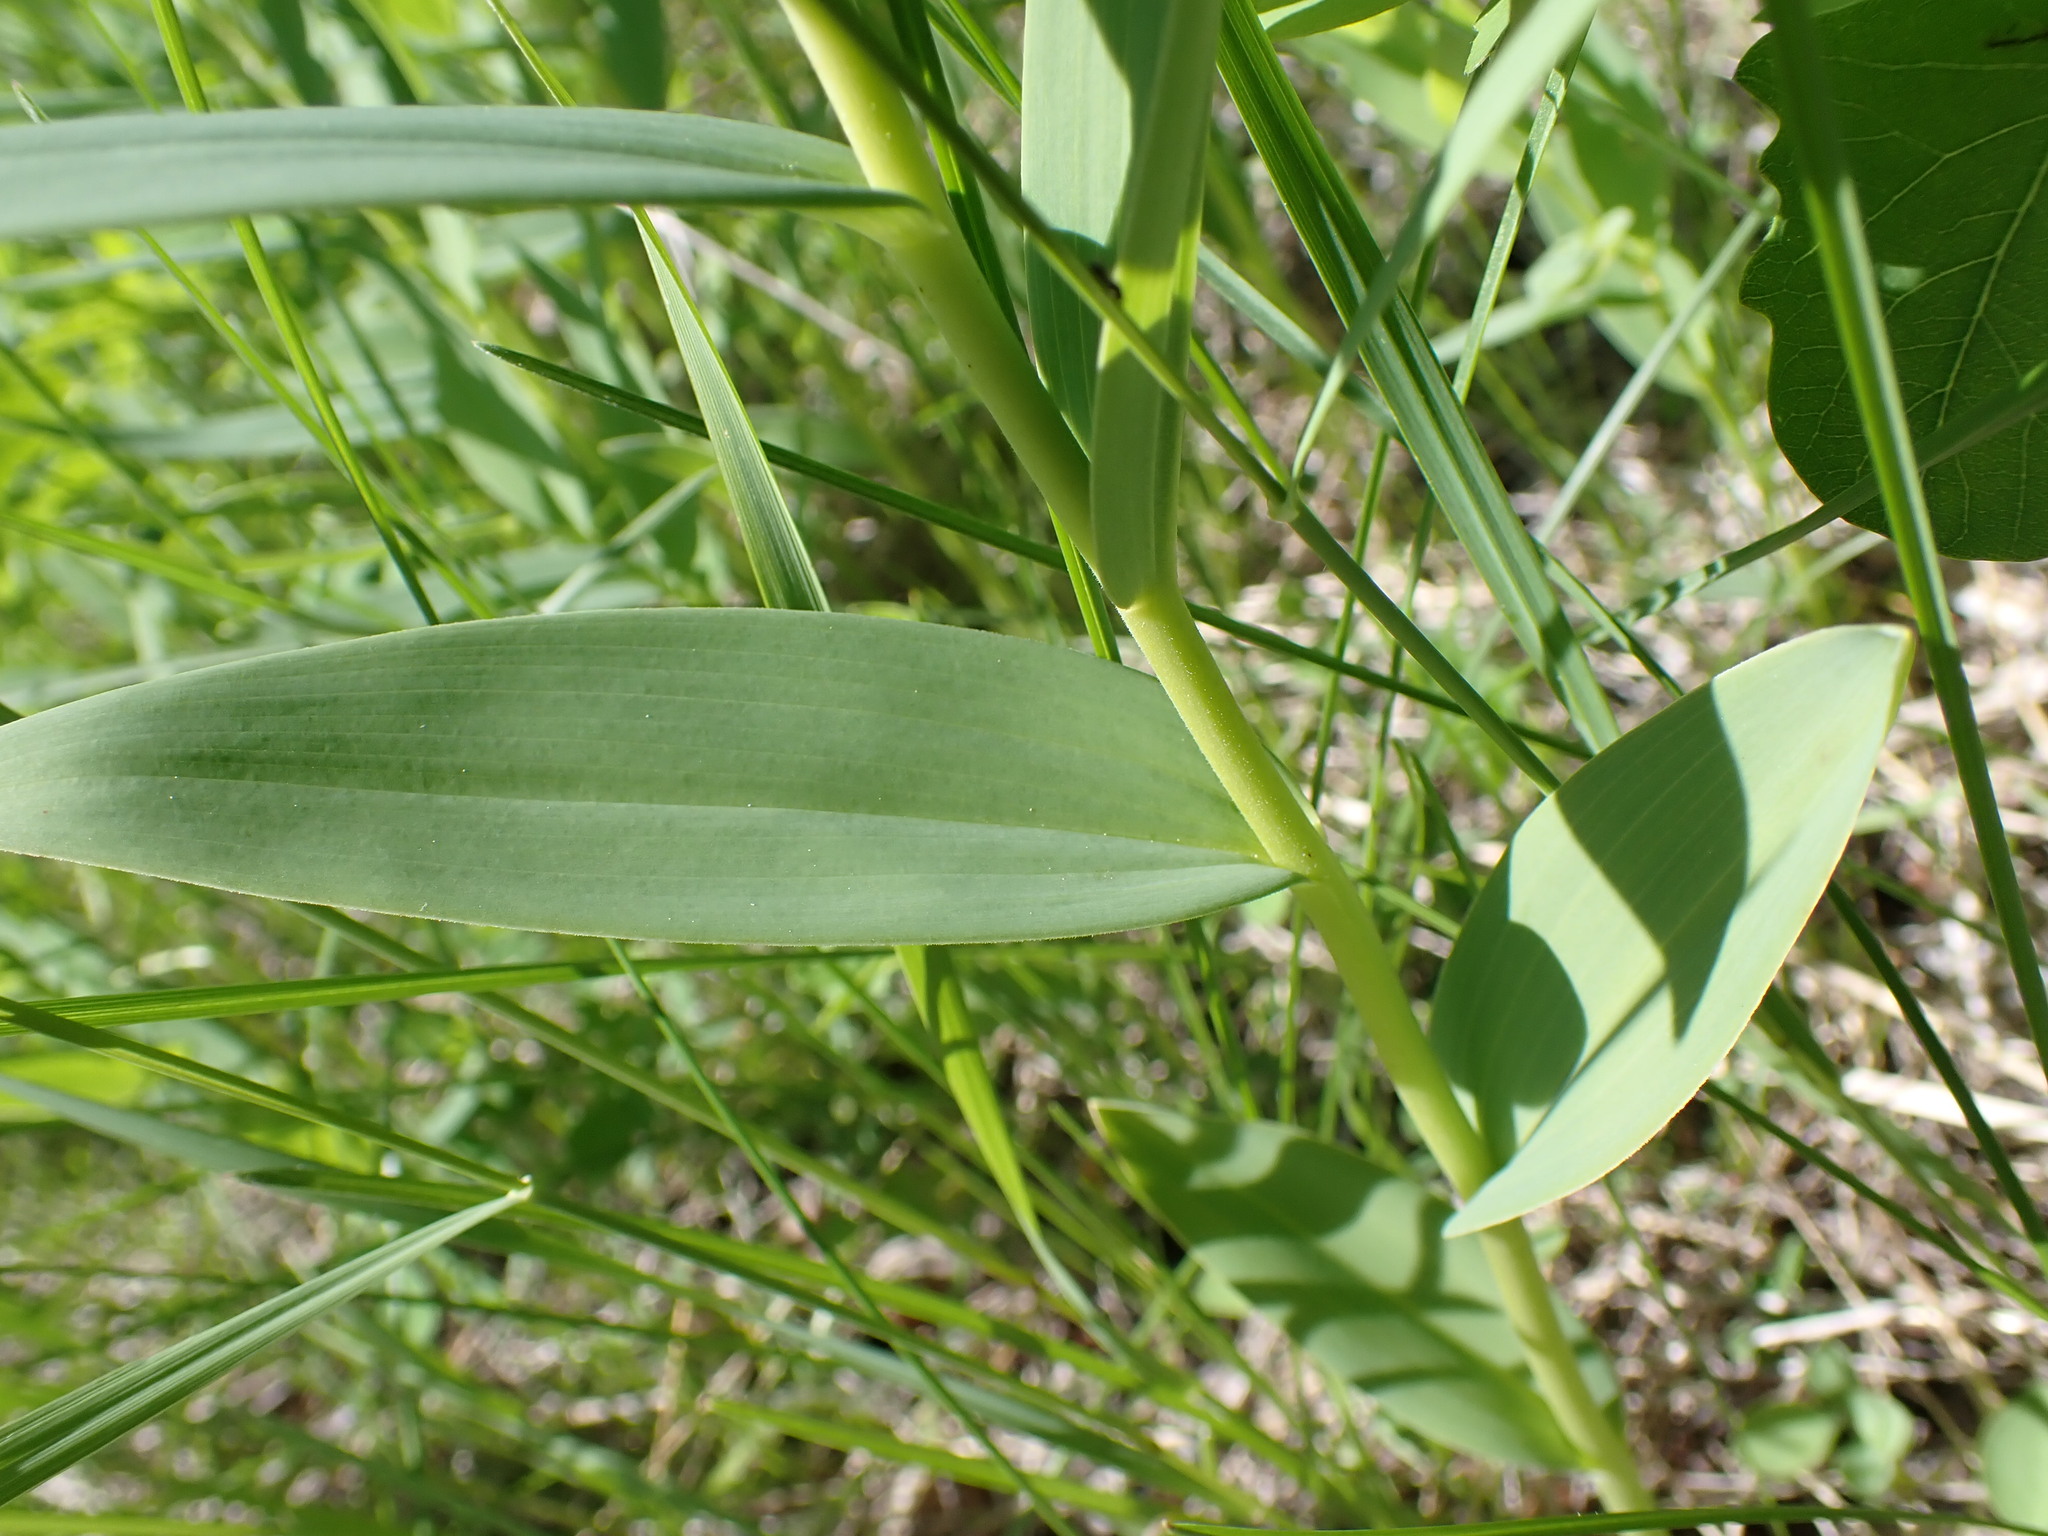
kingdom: Plantae
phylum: Tracheophyta
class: Liliopsida
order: Asparagales
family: Asparagaceae
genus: Maianthemum
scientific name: Maianthemum stellatum
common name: Little false solomon's seal
